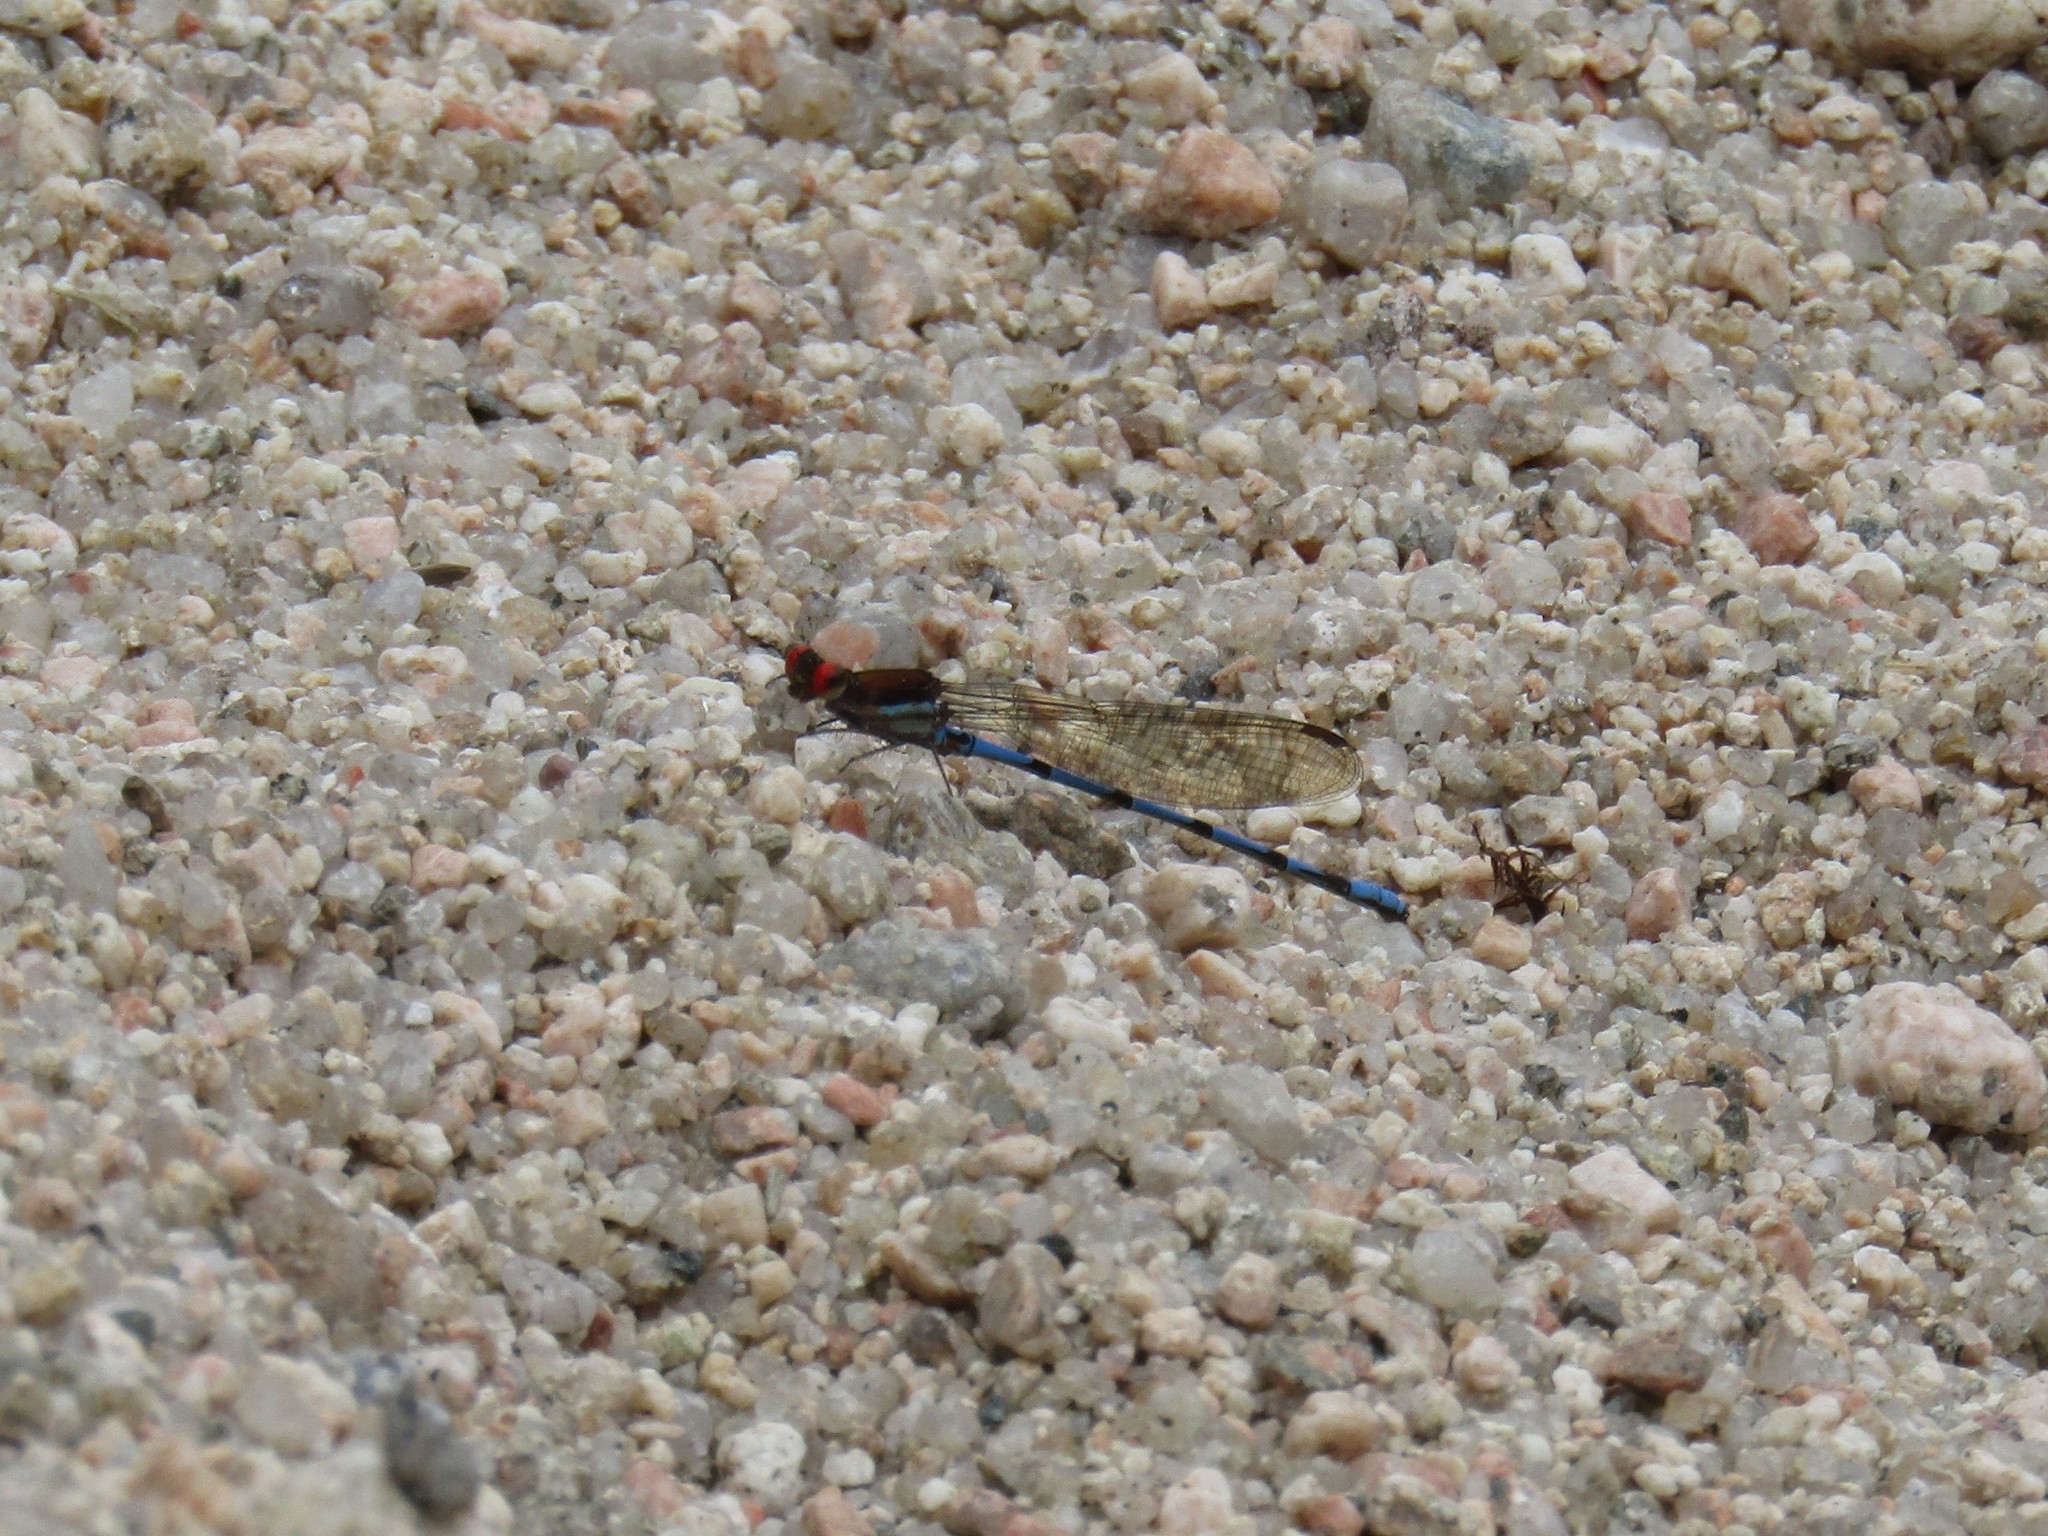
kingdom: Animalia
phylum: Arthropoda
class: Insecta
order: Odonata
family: Coenagrionidae
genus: Argia
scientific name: Argia joergenseni
